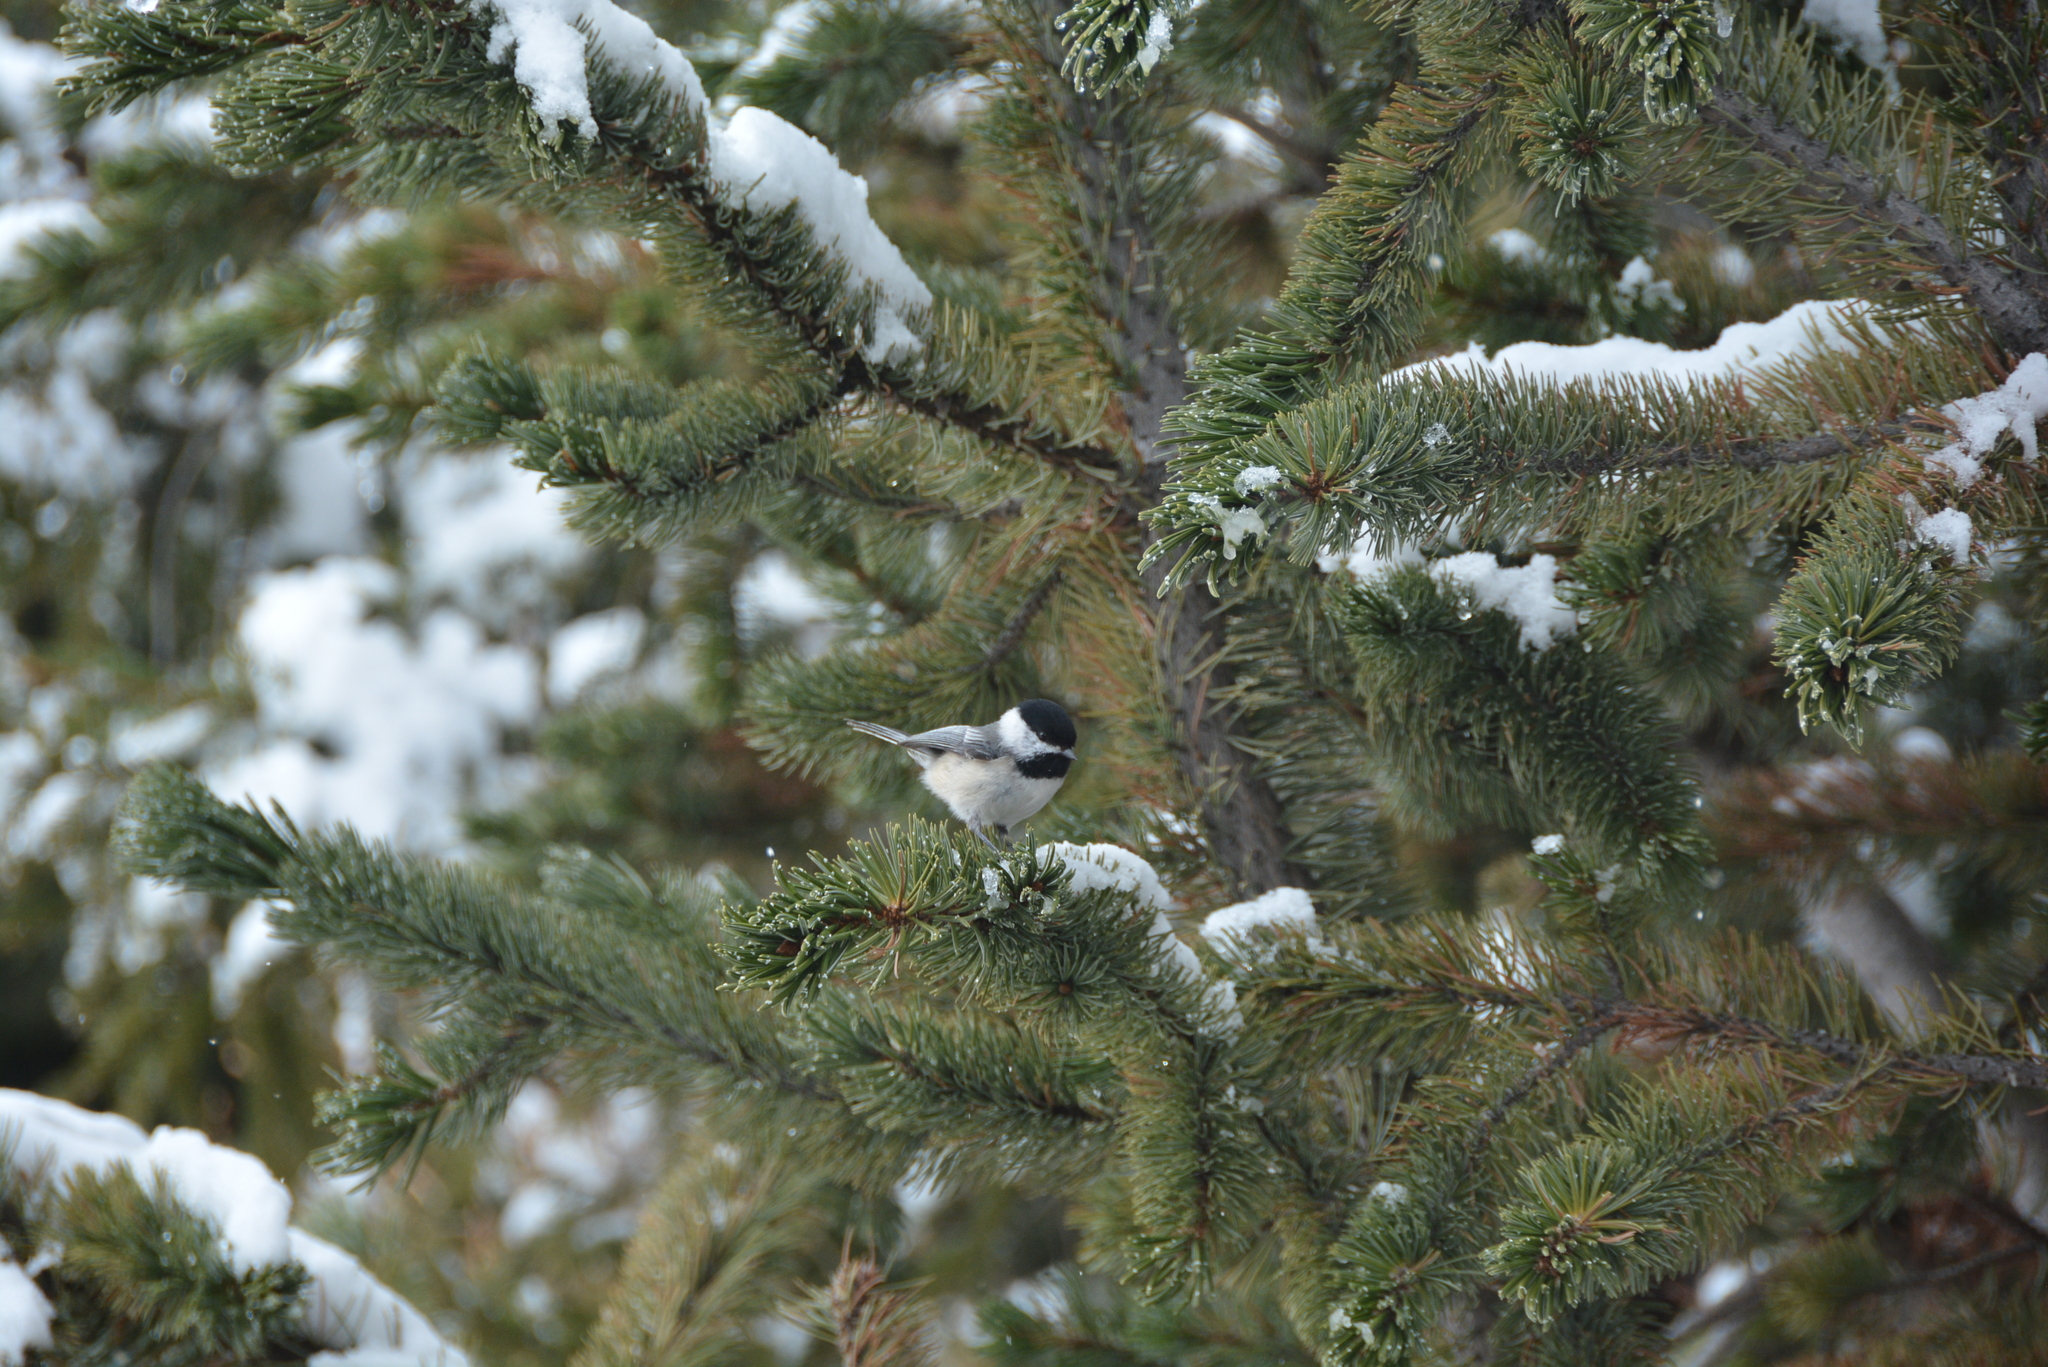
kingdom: Animalia
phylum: Chordata
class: Aves
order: Passeriformes
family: Paridae
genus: Poecile
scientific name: Poecile atricapillus
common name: Black-capped chickadee
